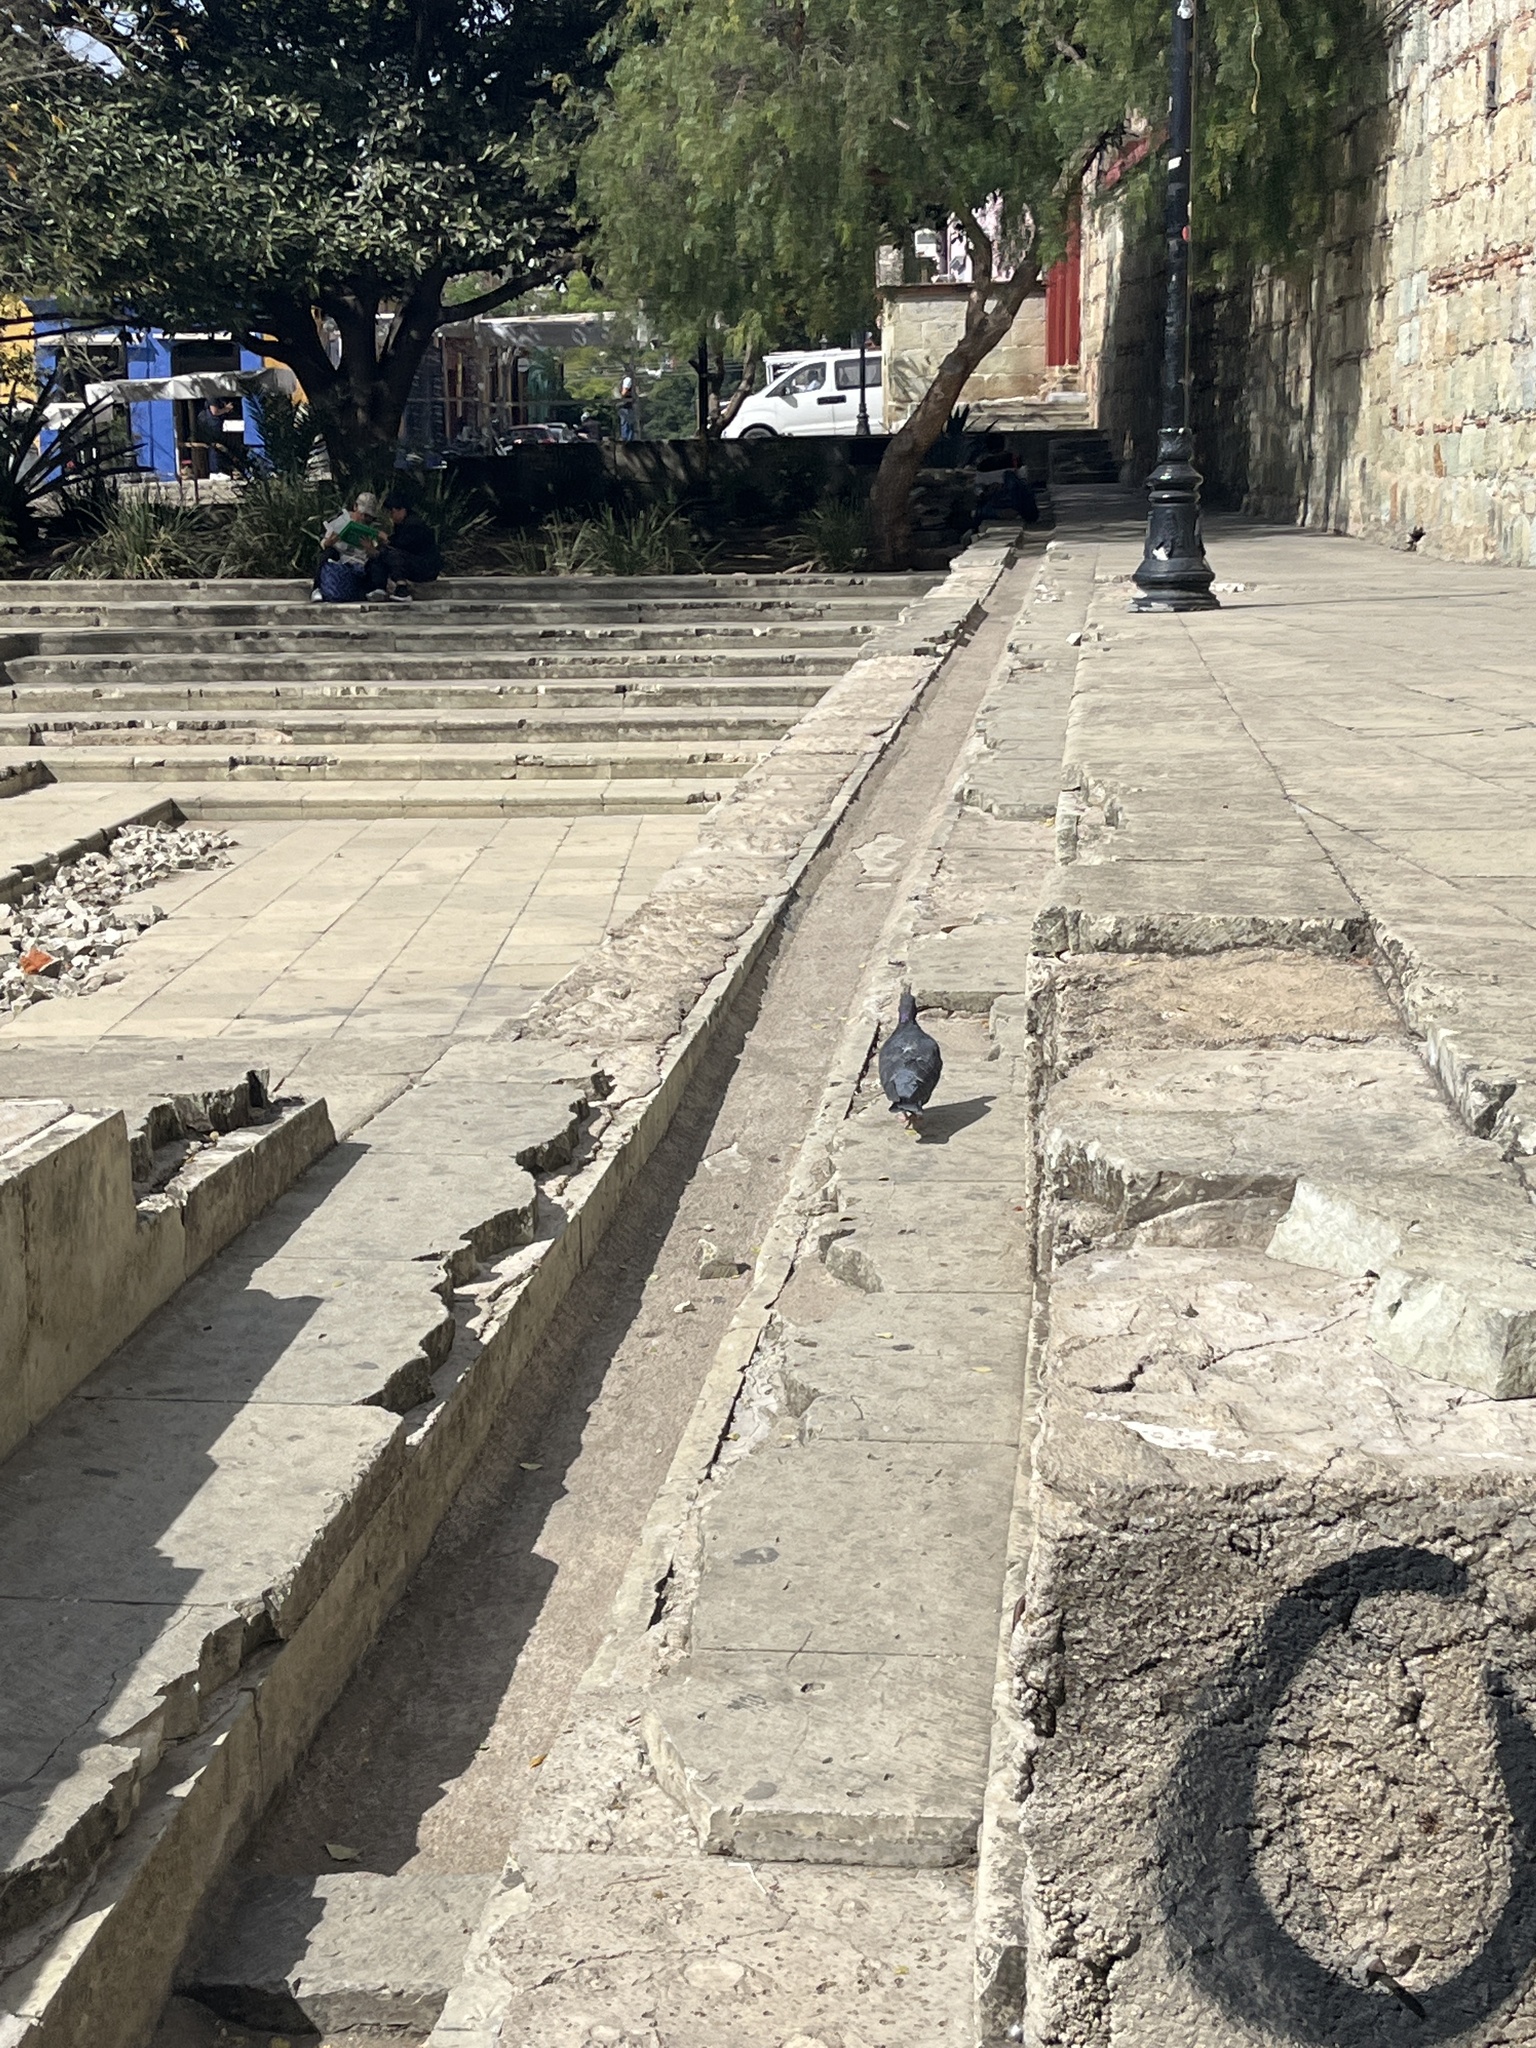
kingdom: Animalia
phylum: Chordata
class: Aves
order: Columbiformes
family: Columbidae
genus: Columba
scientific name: Columba livia
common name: Rock pigeon
